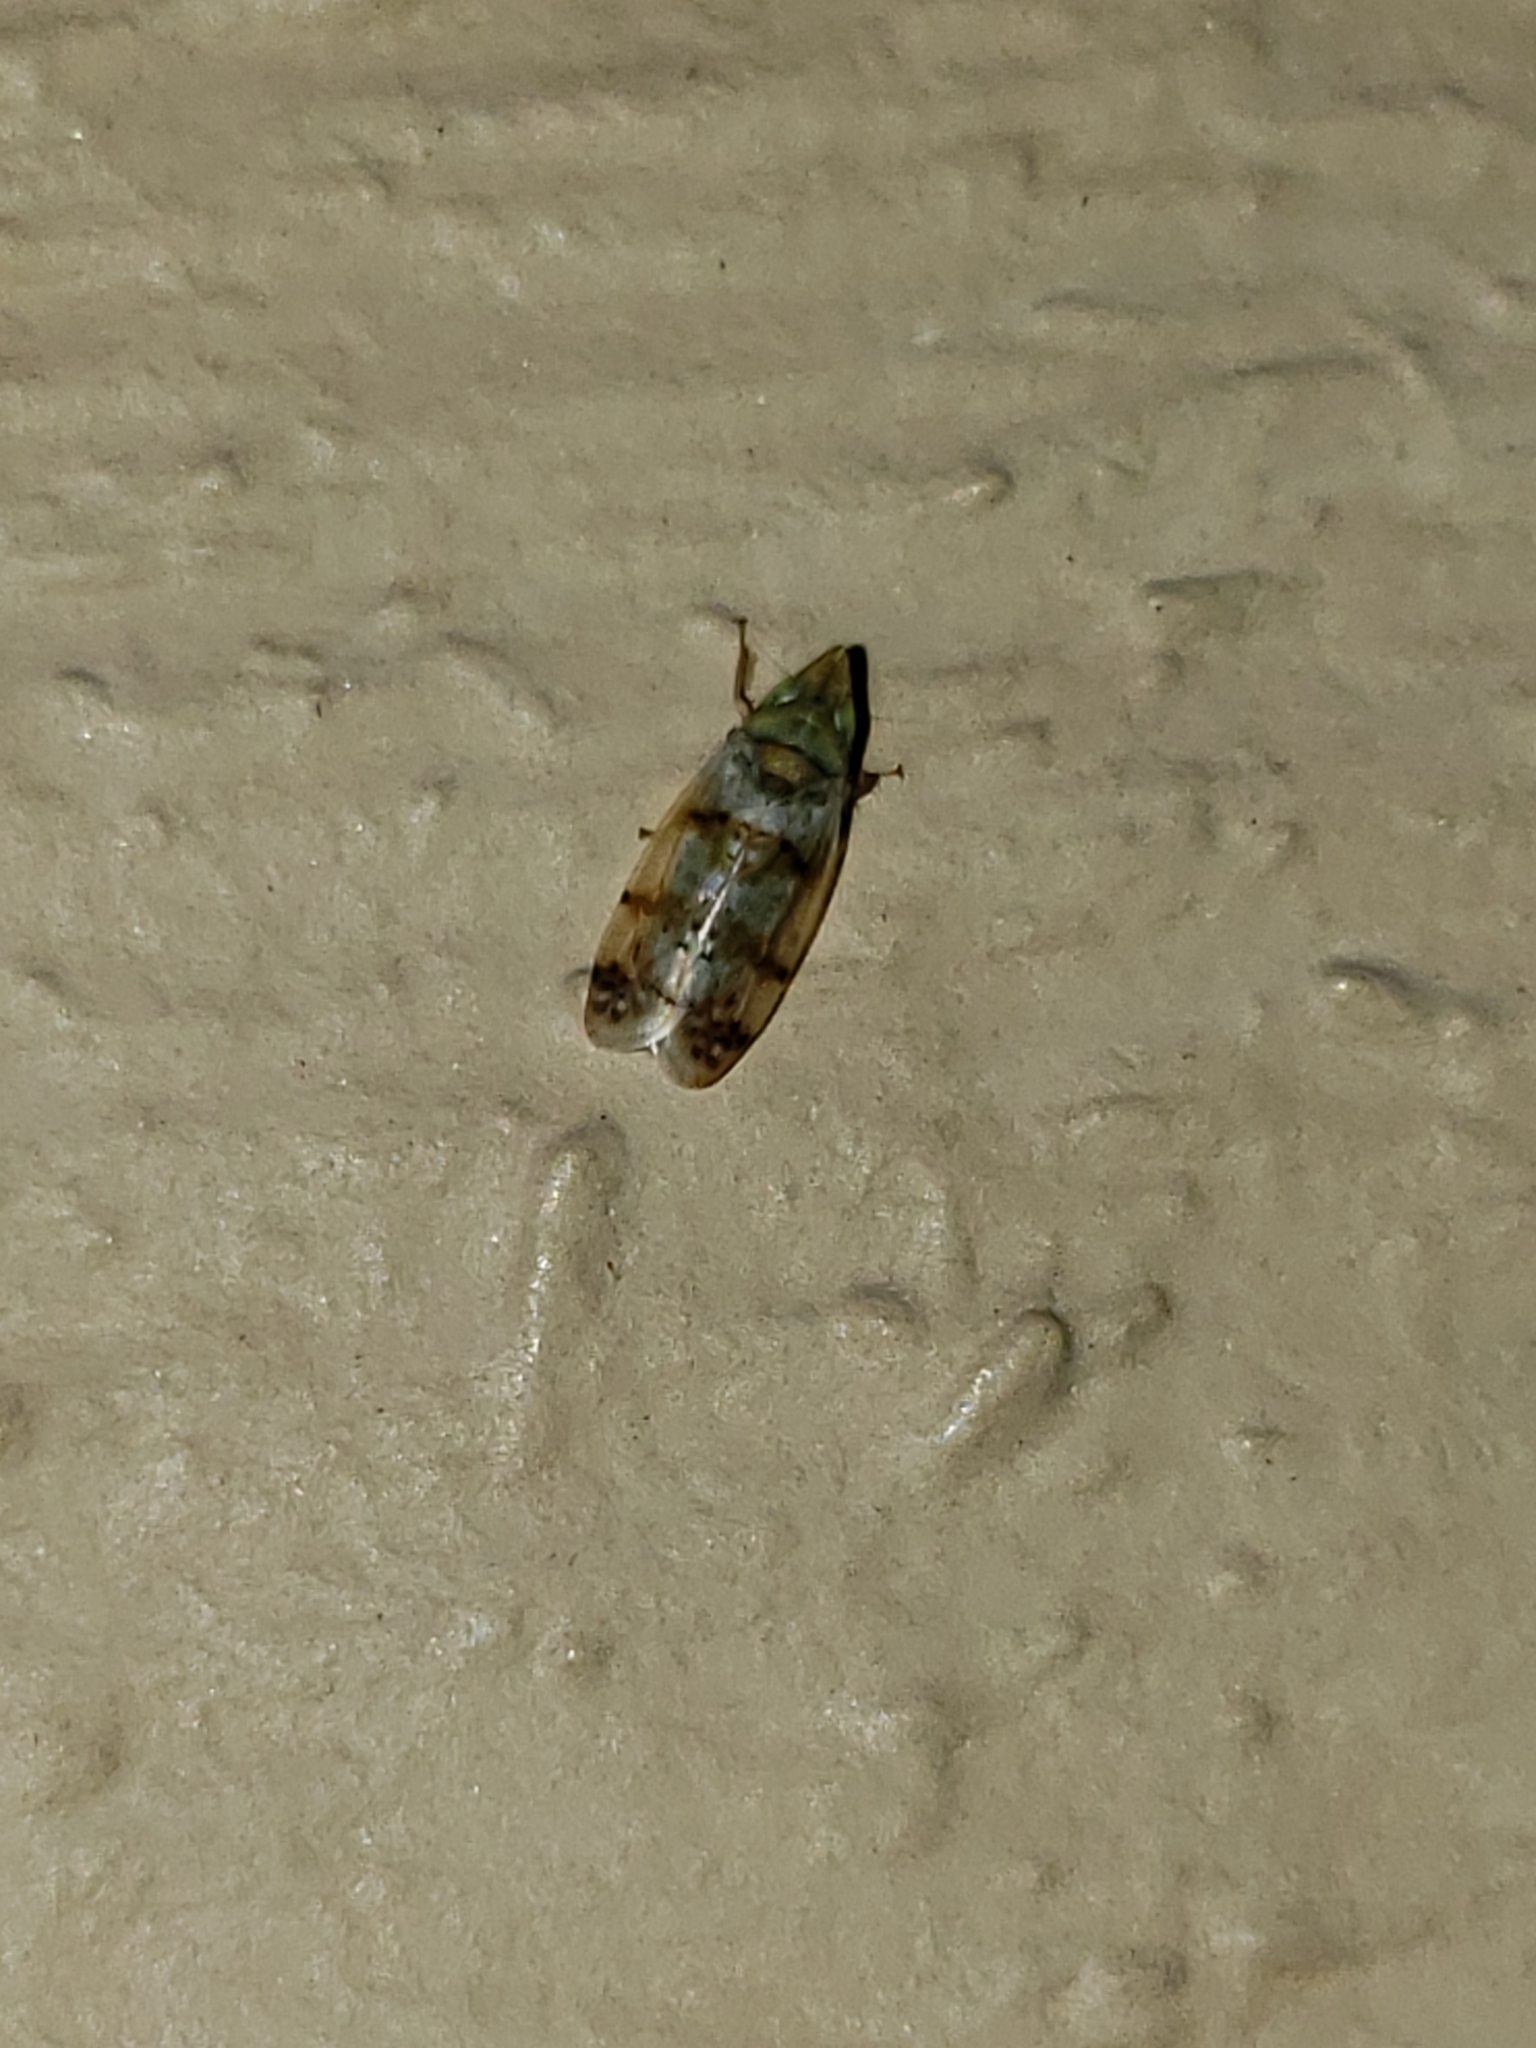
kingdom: Animalia
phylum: Arthropoda
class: Insecta
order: Hemiptera
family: Cicadellidae
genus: Japananus
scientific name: Japananus hyalinus
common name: The japanese maple leafhopper
